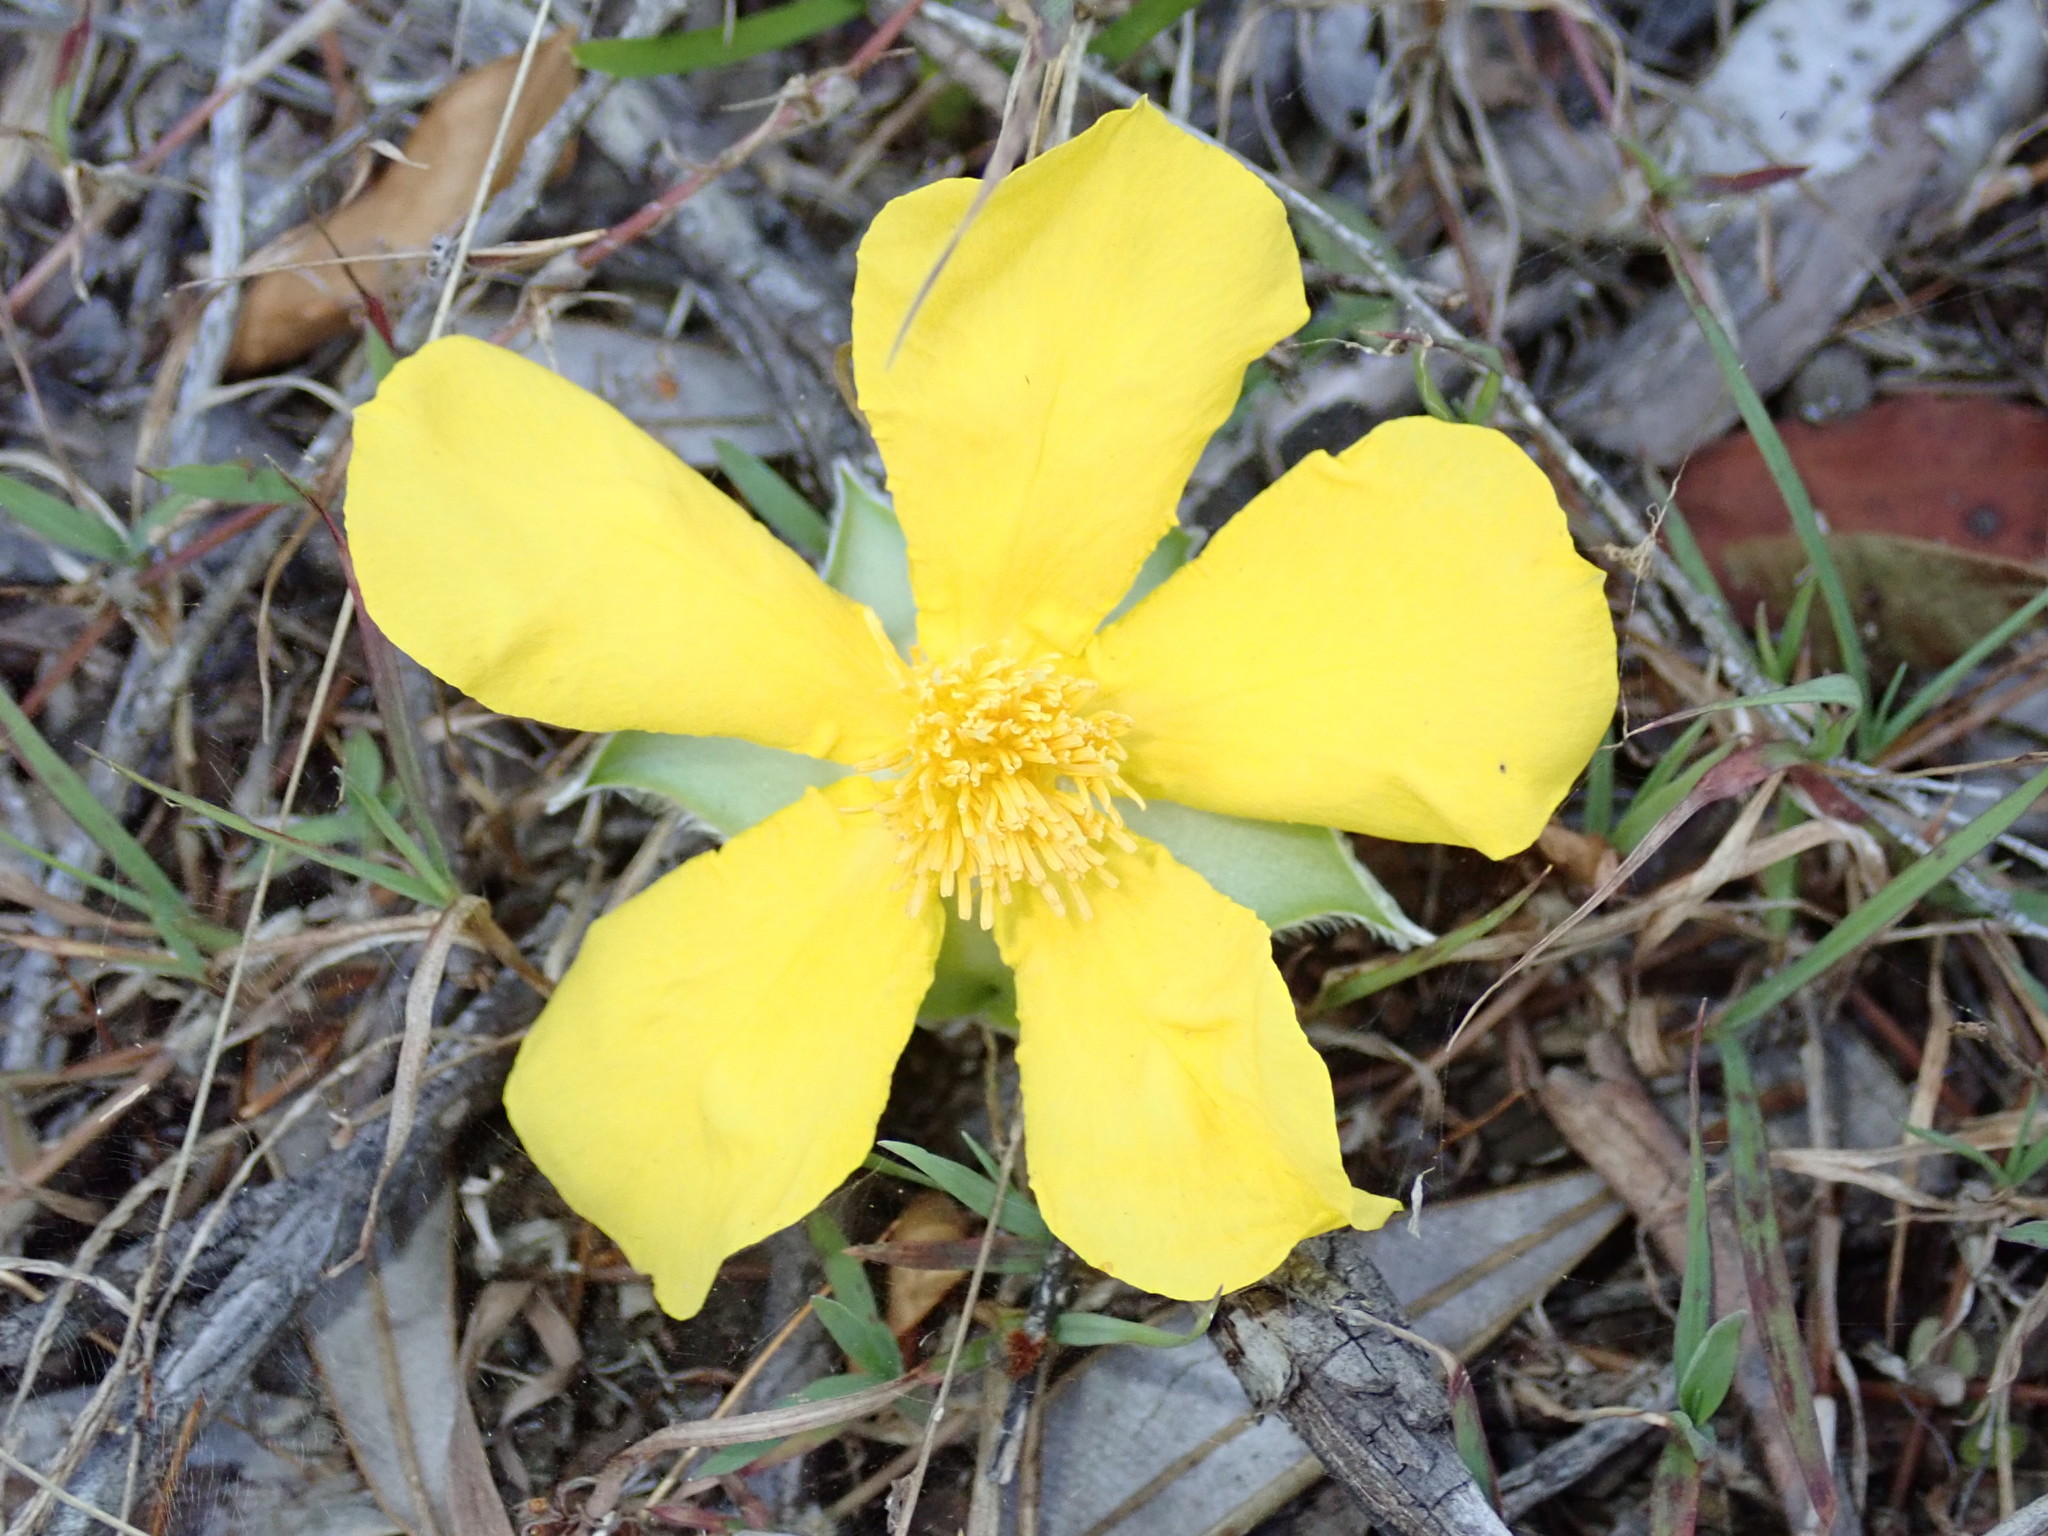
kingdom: Plantae
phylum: Tracheophyta
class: Magnoliopsida
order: Dilleniales
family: Dilleniaceae
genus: Hibbertia
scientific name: Hibbertia scandens
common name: Climbing guinea-flower
